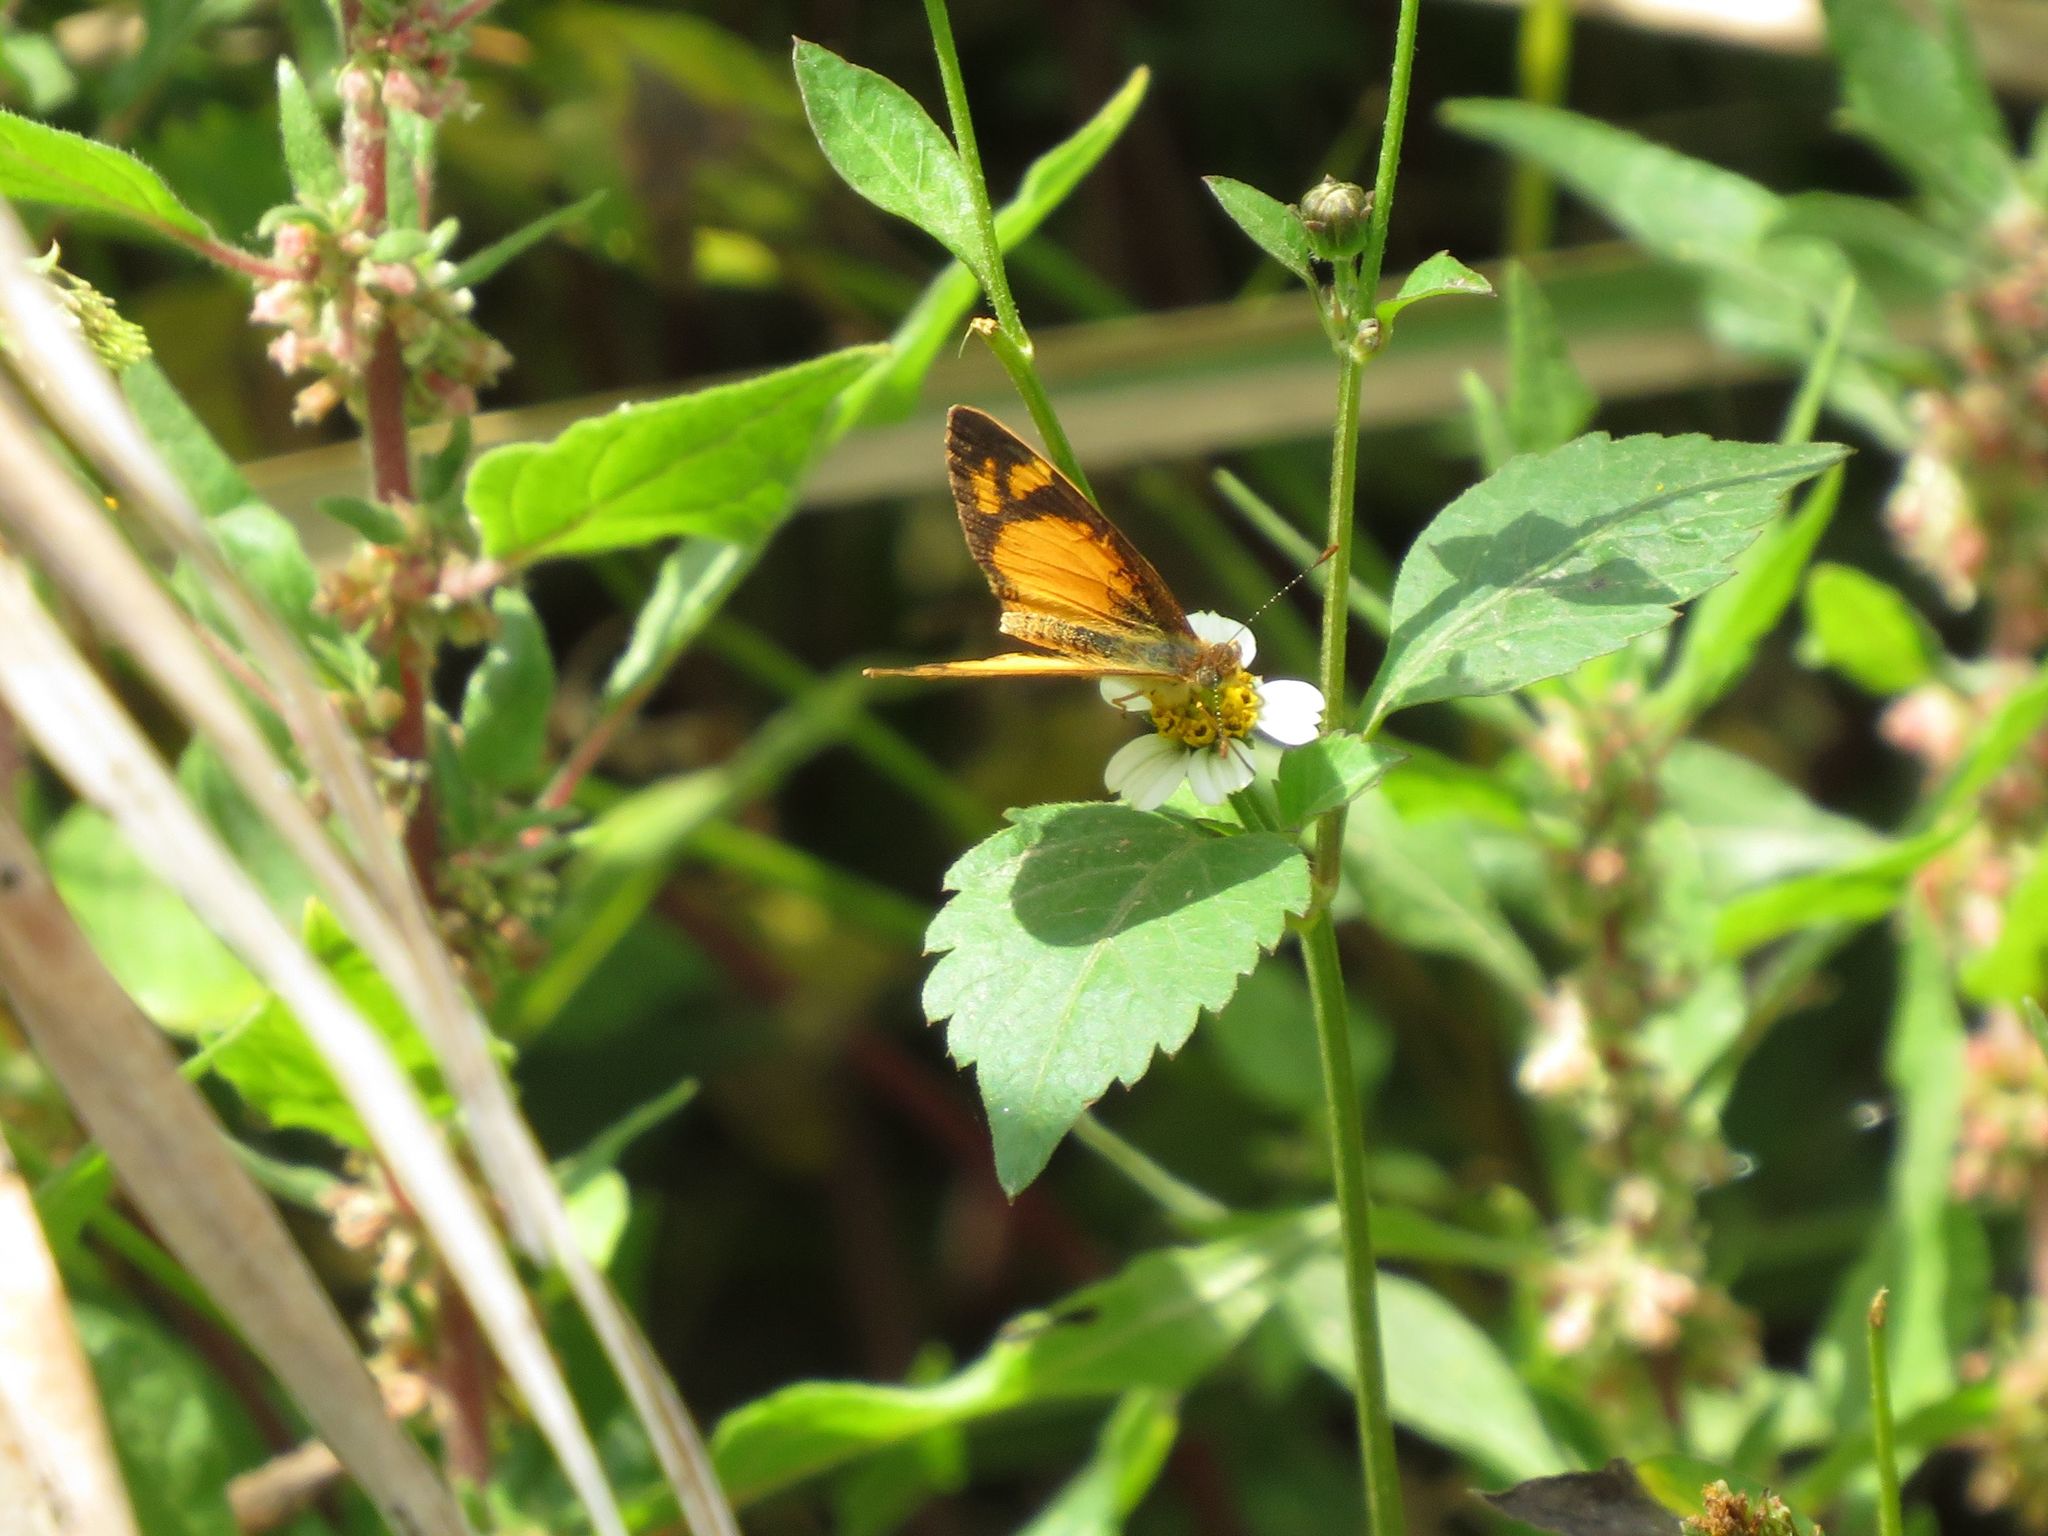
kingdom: Animalia
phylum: Arthropoda
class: Insecta
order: Lepidoptera
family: Nymphalidae
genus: Tegosa
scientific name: Tegosa claudina
